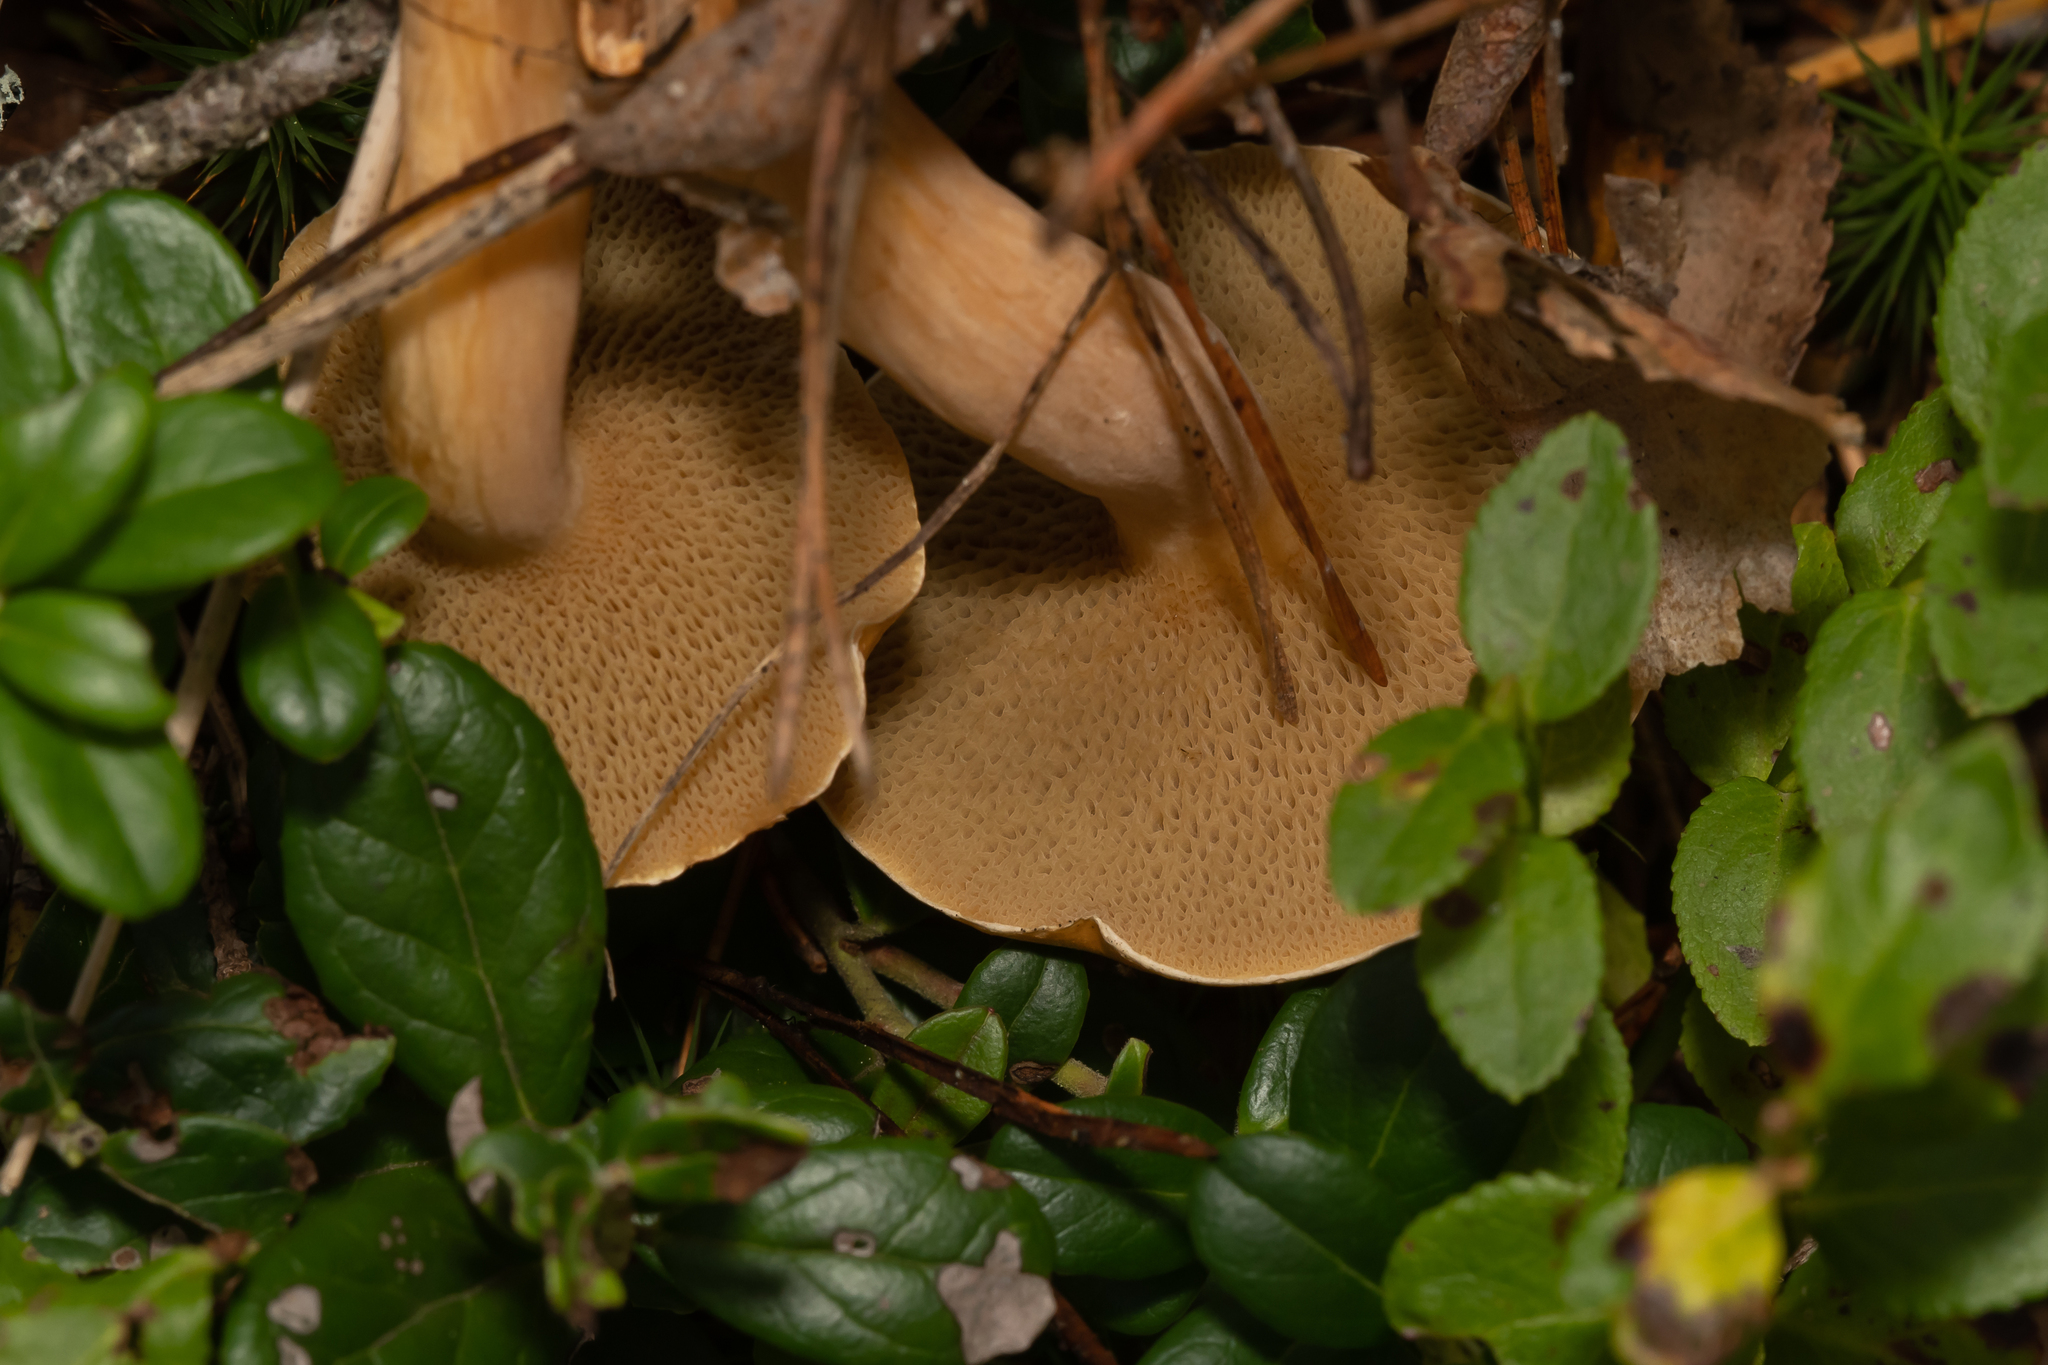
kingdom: Fungi
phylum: Basidiomycota
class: Agaricomycetes
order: Boletales
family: Suillaceae
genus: Suillus
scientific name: Suillus bovinus
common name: Bovine bolete
